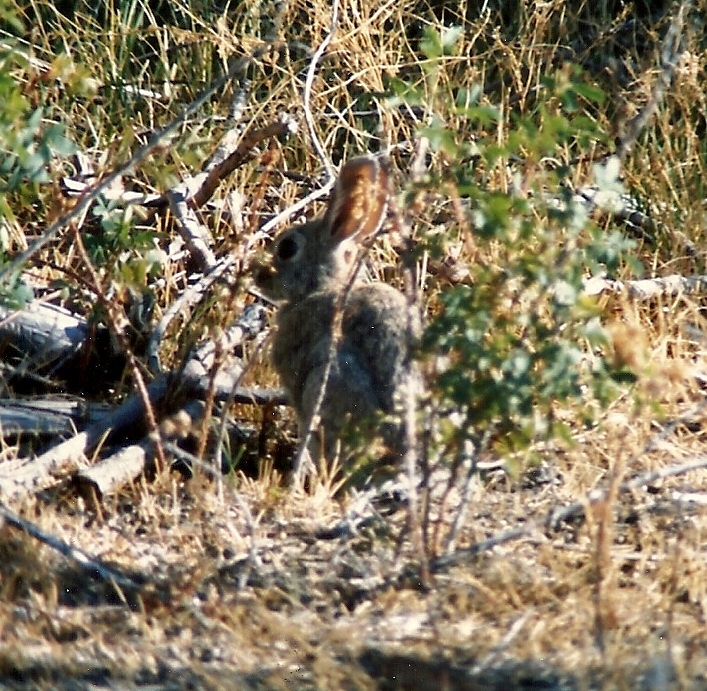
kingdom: Animalia
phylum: Chordata
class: Mammalia
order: Lagomorpha
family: Leporidae
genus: Sylvilagus
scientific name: Sylvilagus audubonii
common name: Desert cottontail
